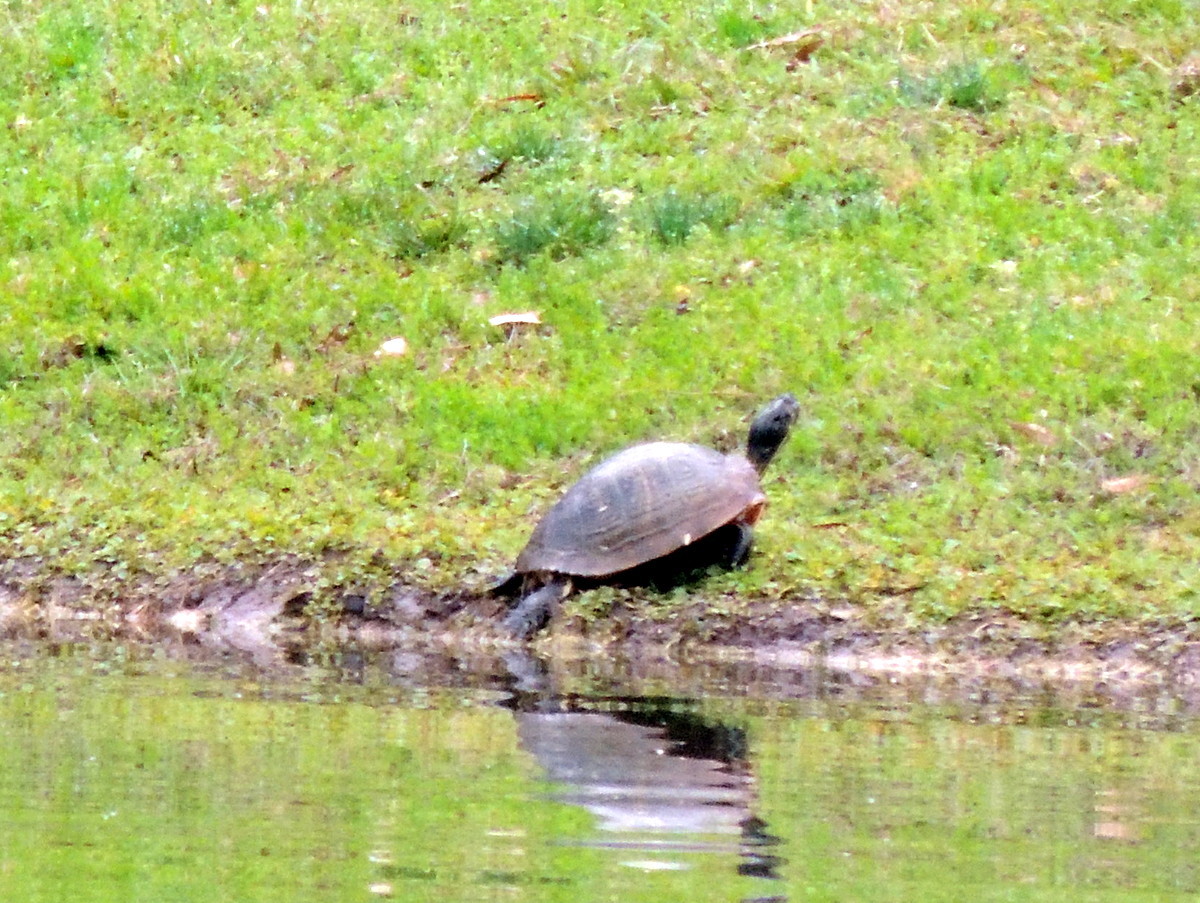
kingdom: Animalia
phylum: Chordata
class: Testudines
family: Emydidae
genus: Trachemys
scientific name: Trachemys scripta
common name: Slider
